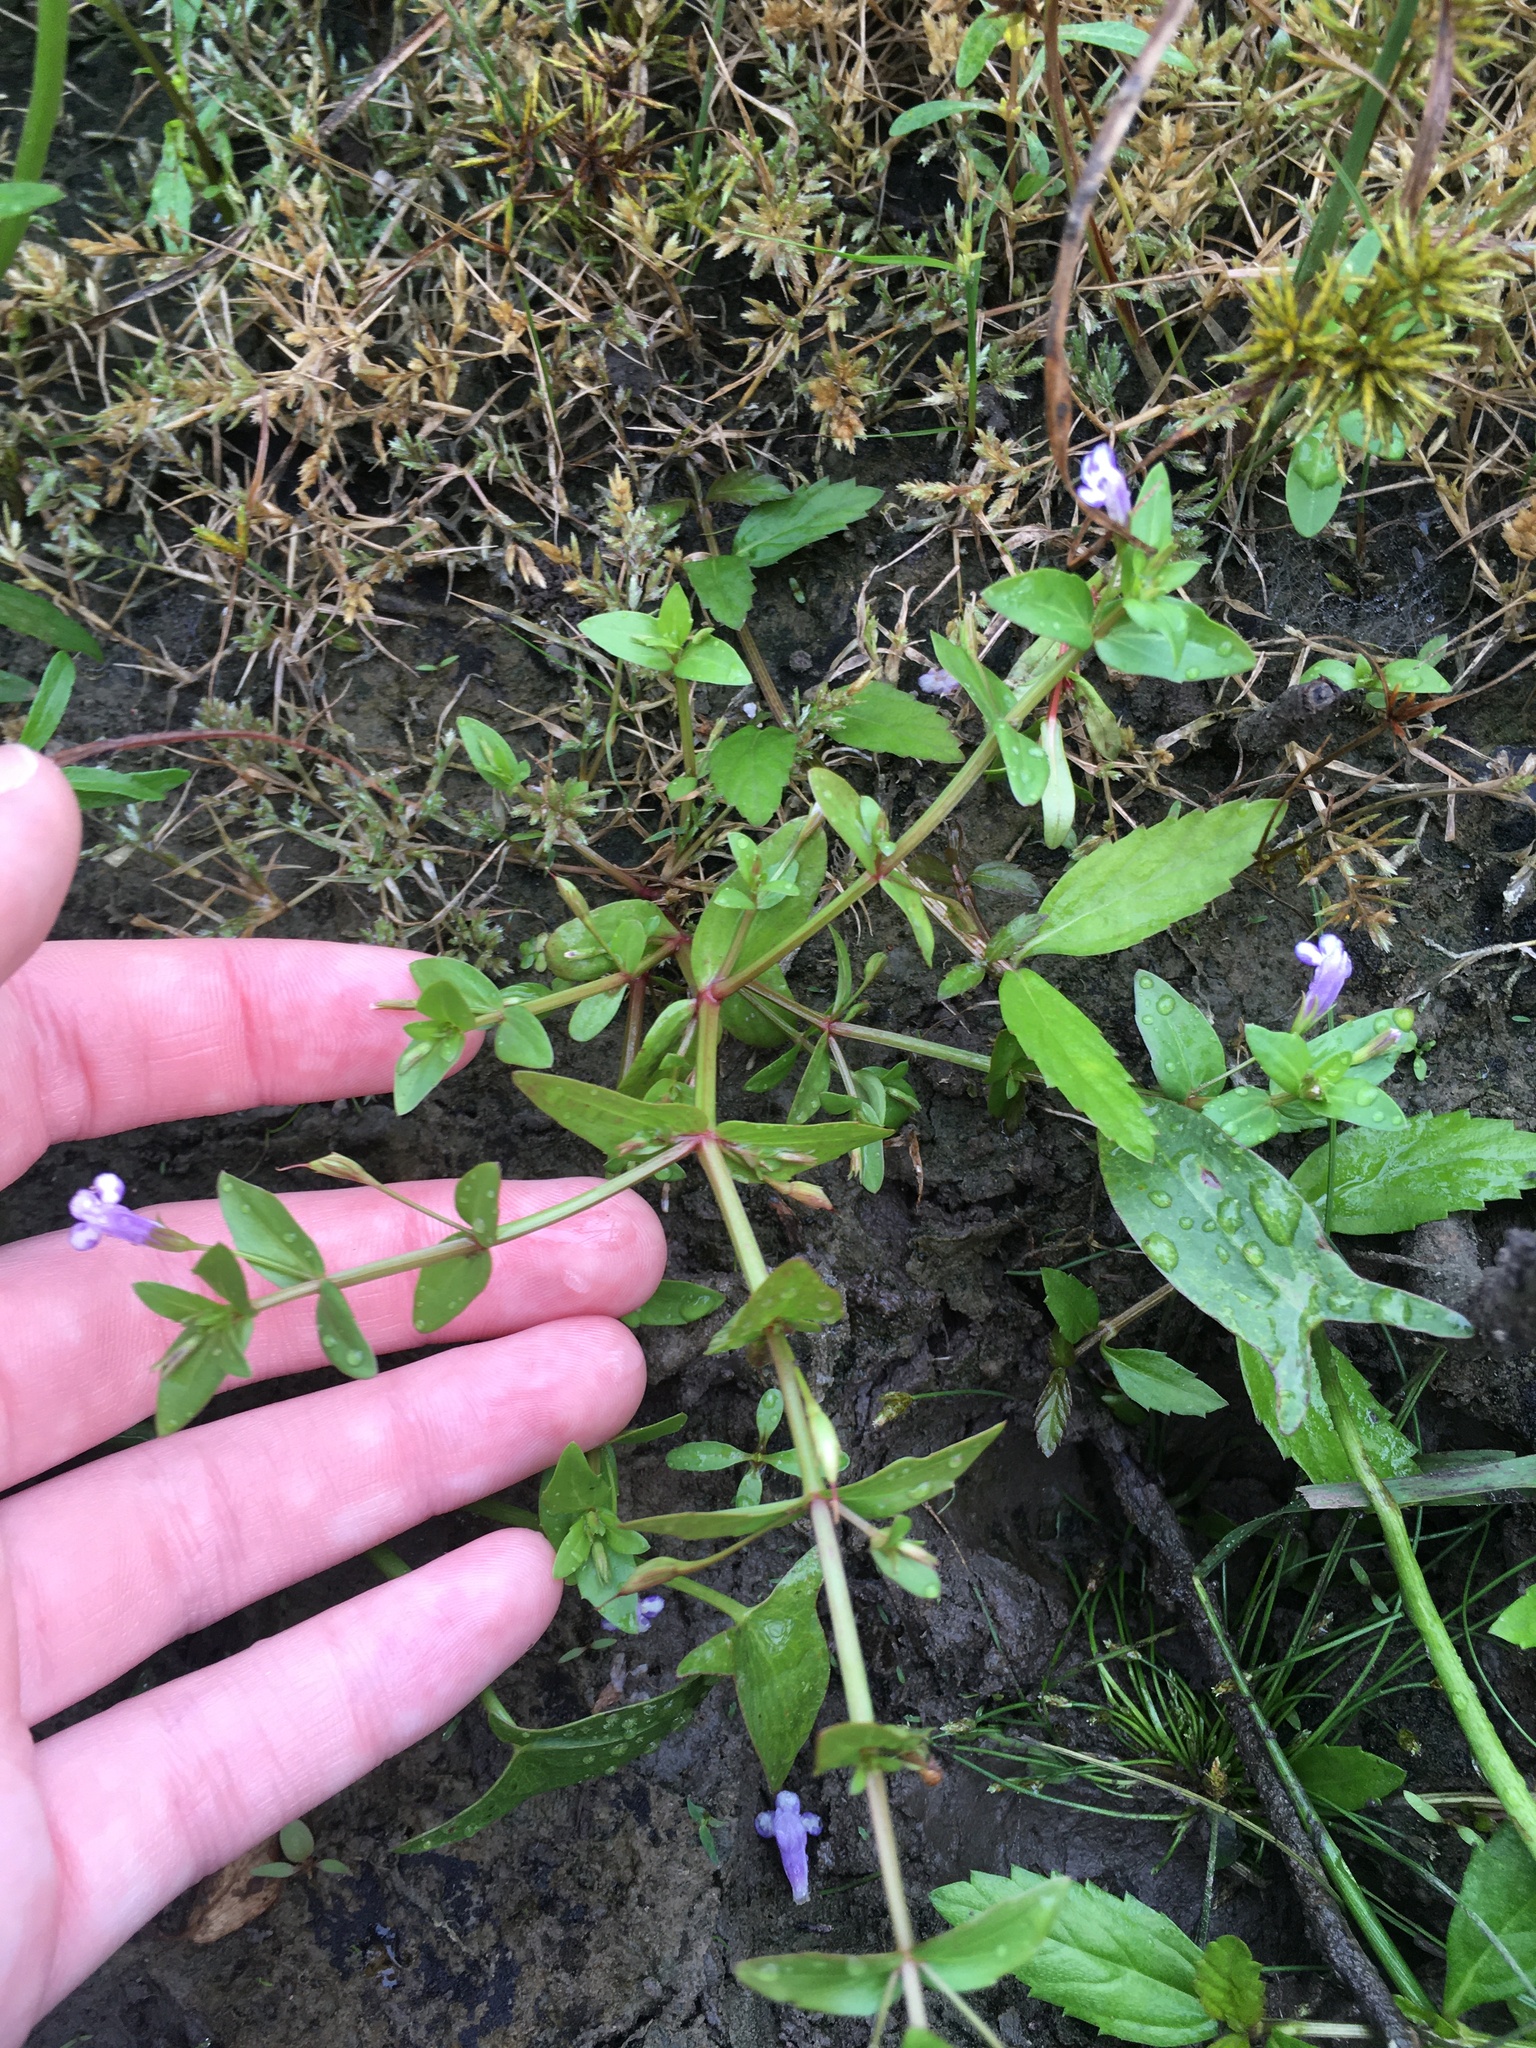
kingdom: Plantae
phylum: Tracheophyta
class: Magnoliopsida
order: Lamiales
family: Linderniaceae
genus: Lindernia
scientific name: Lindernia dubia
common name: Annual false pimpernel
